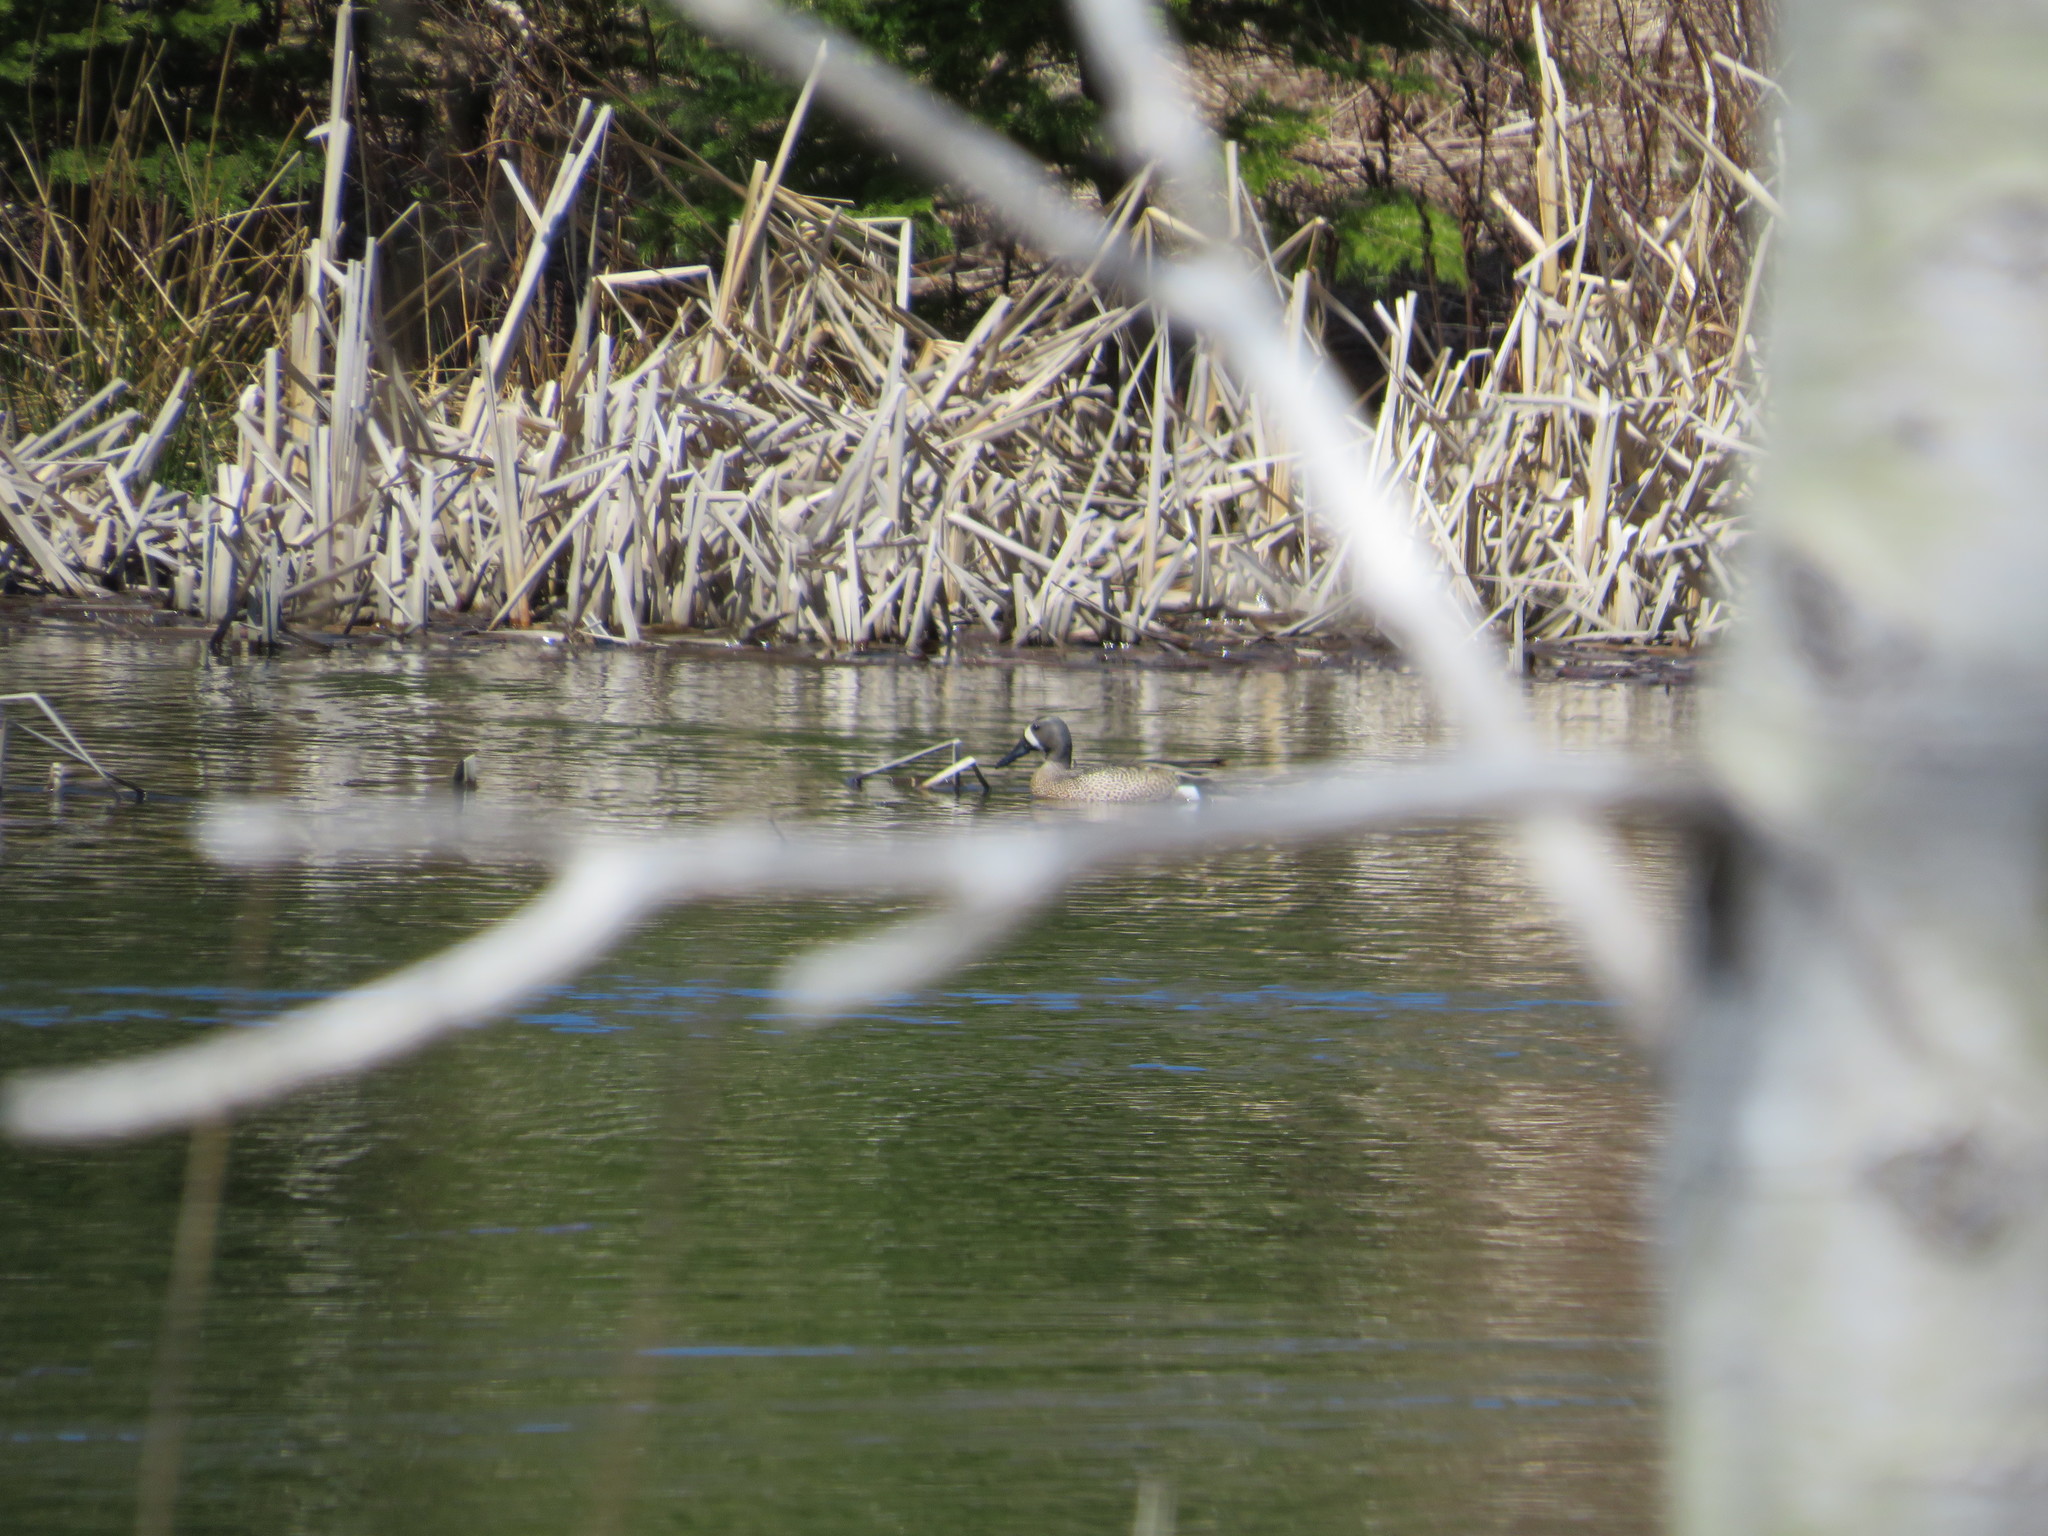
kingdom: Animalia
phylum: Chordata
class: Aves
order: Anseriformes
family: Anatidae
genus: Spatula
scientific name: Spatula discors
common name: Blue-winged teal
